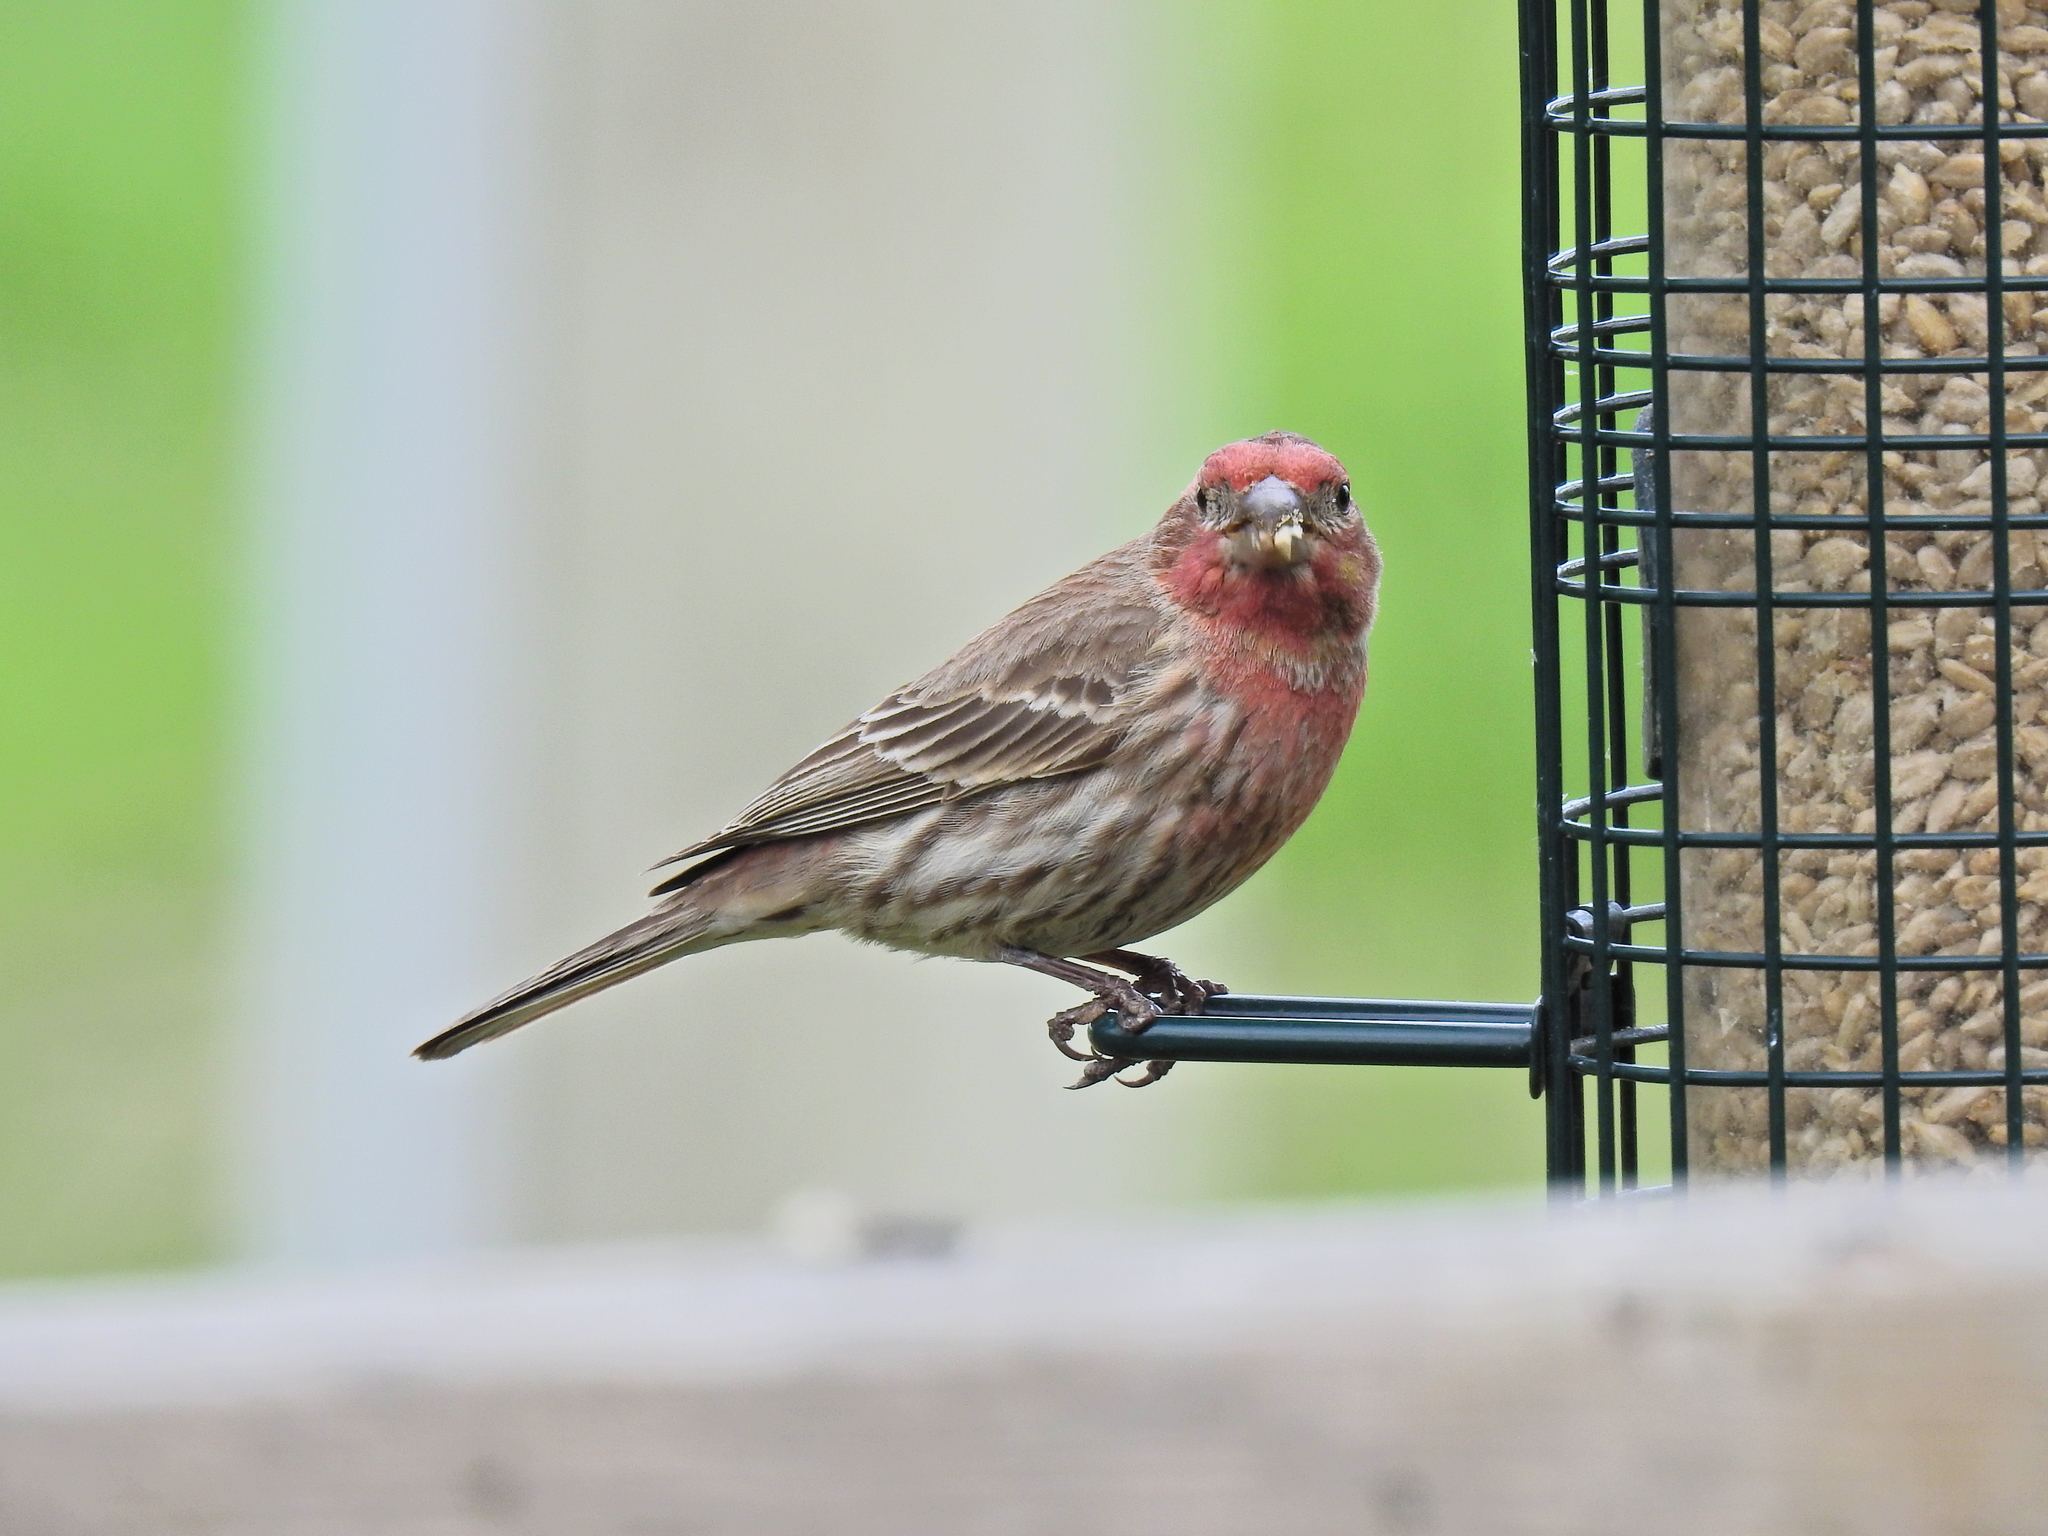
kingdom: Animalia
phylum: Chordata
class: Aves
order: Passeriformes
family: Fringillidae
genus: Haemorhous
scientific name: Haemorhous mexicanus
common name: House finch
